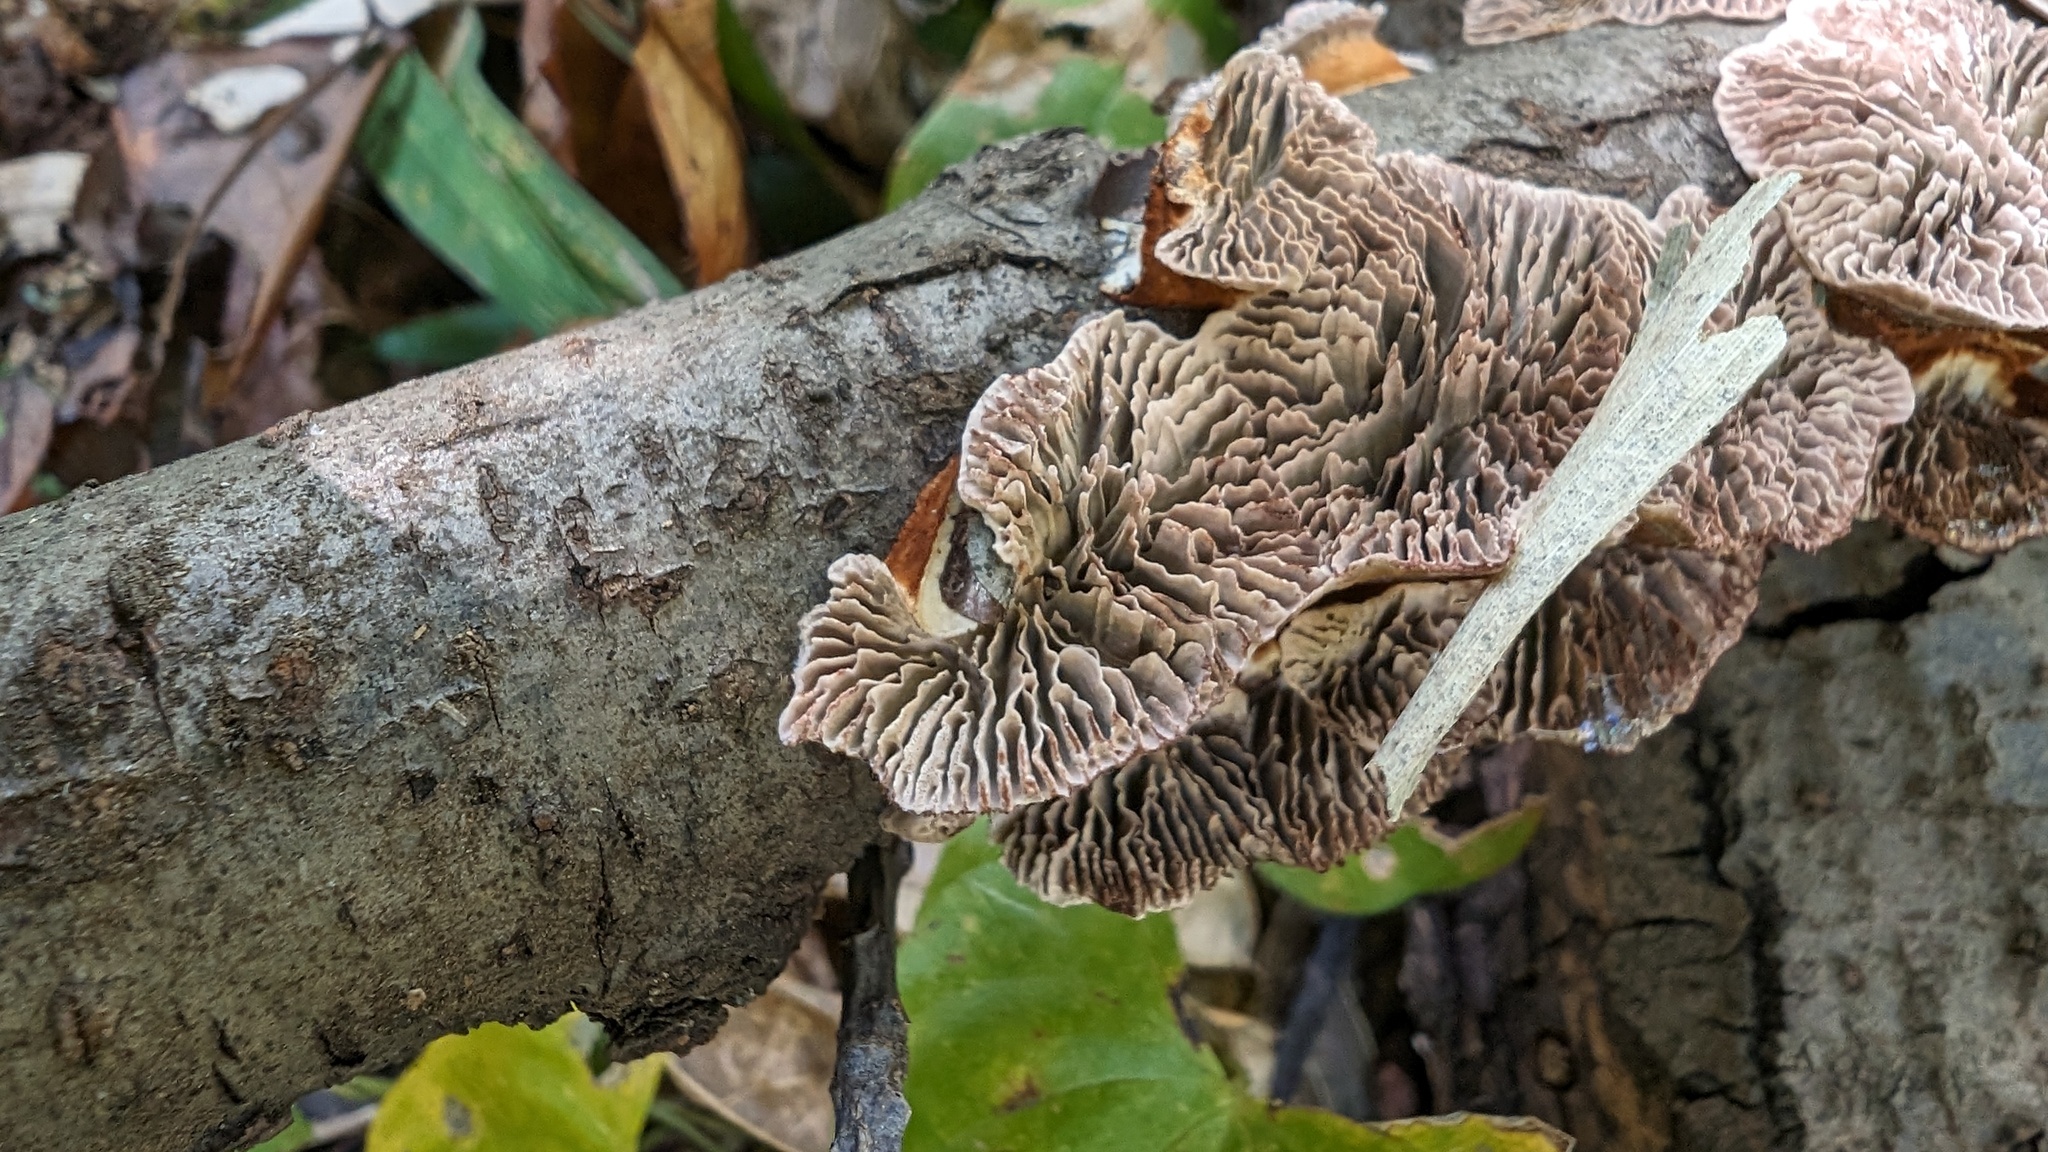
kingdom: Fungi
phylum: Basidiomycota
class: Agaricomycetes
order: Polyporales
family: Polyporaceae
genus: Daedaleopsis
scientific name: Daedaleopsis tricolor
